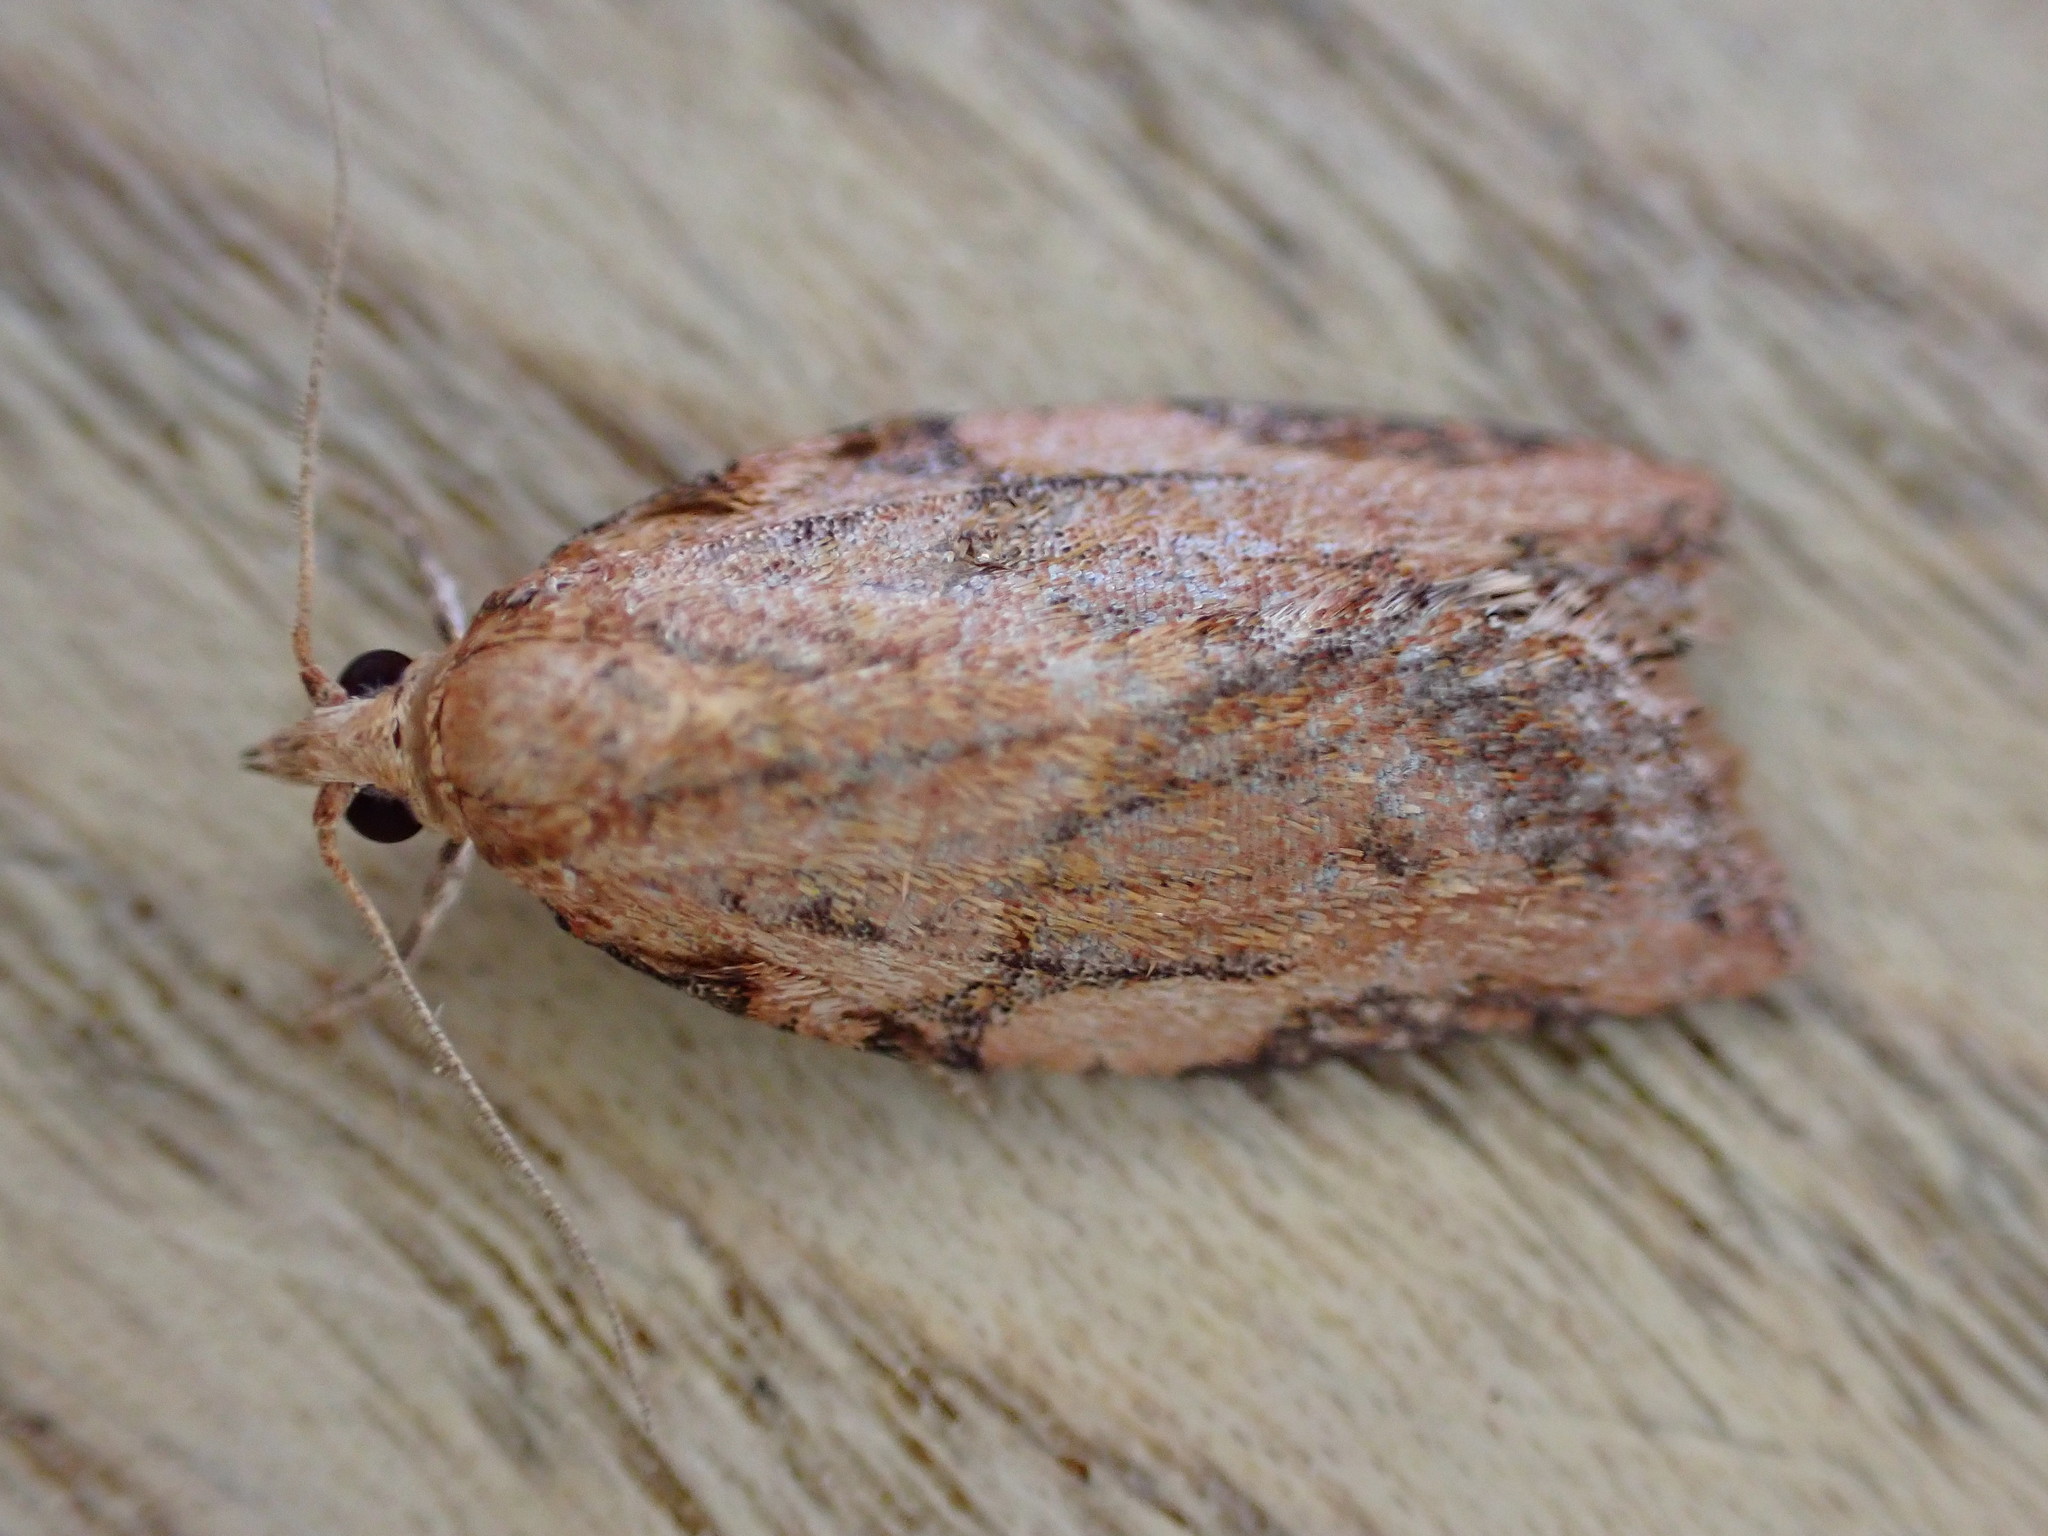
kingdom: Animalia
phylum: Arthropoda
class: Insecta
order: Lepidoptera
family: Tortricidae
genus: Epiphyas
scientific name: Epiphyas postvittana
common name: Light brown apple moth
